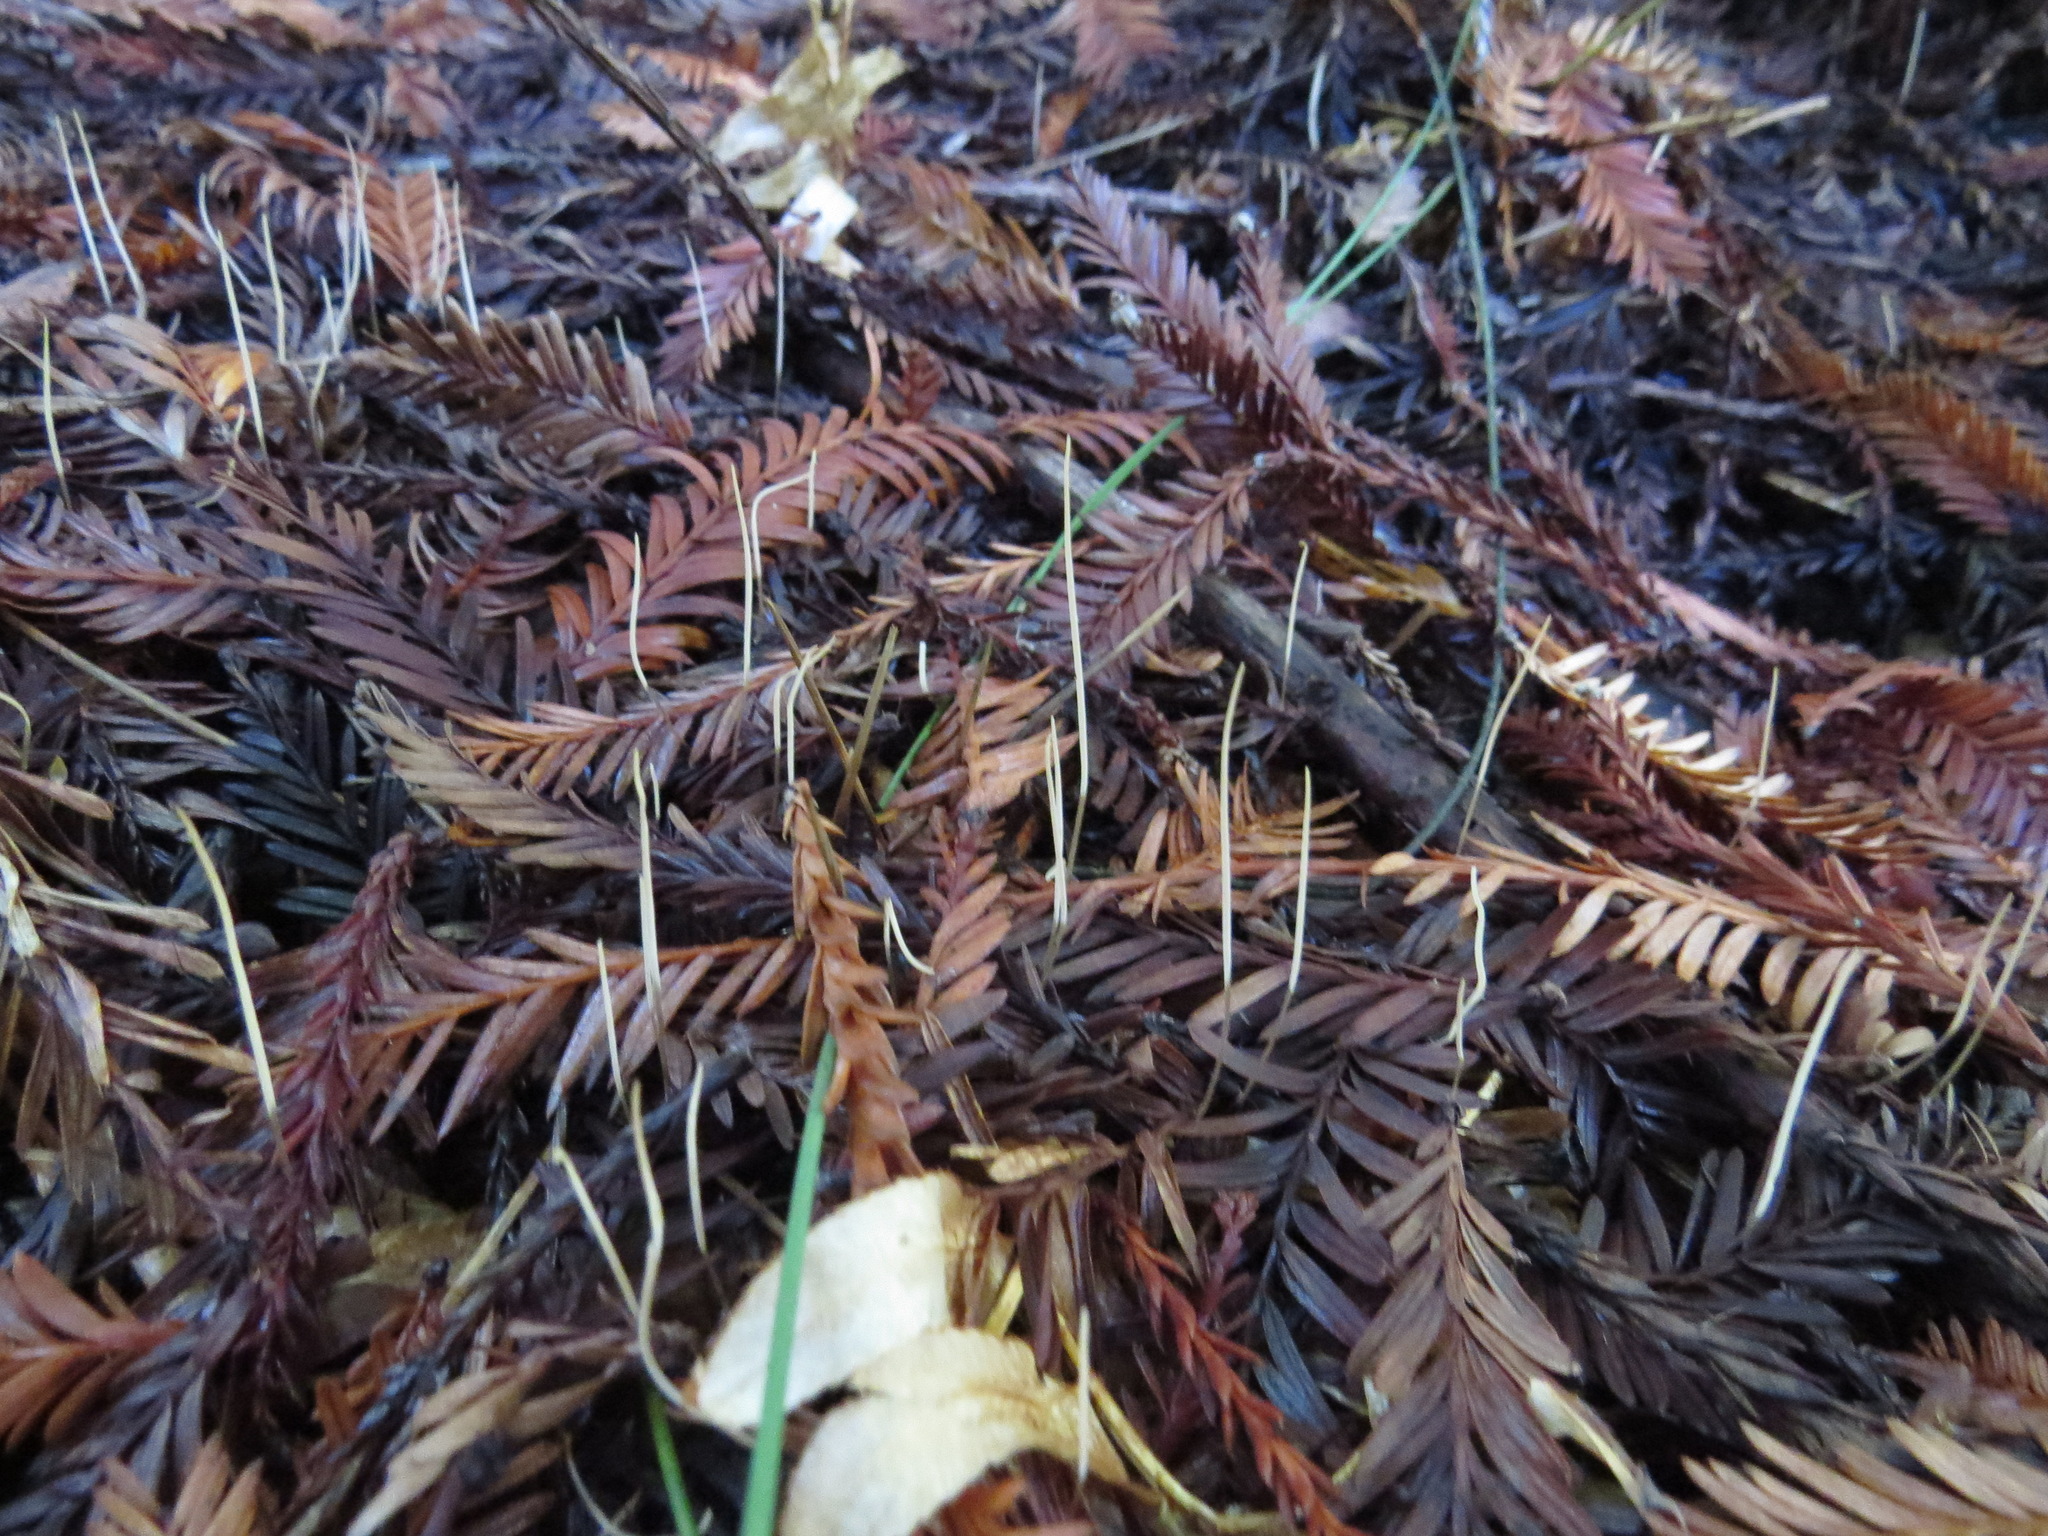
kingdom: Fungi
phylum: Basidiomycota
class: Agaricomycetes
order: Agaricales
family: Typhulaceae
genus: Typhula
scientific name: Typhula juncea
